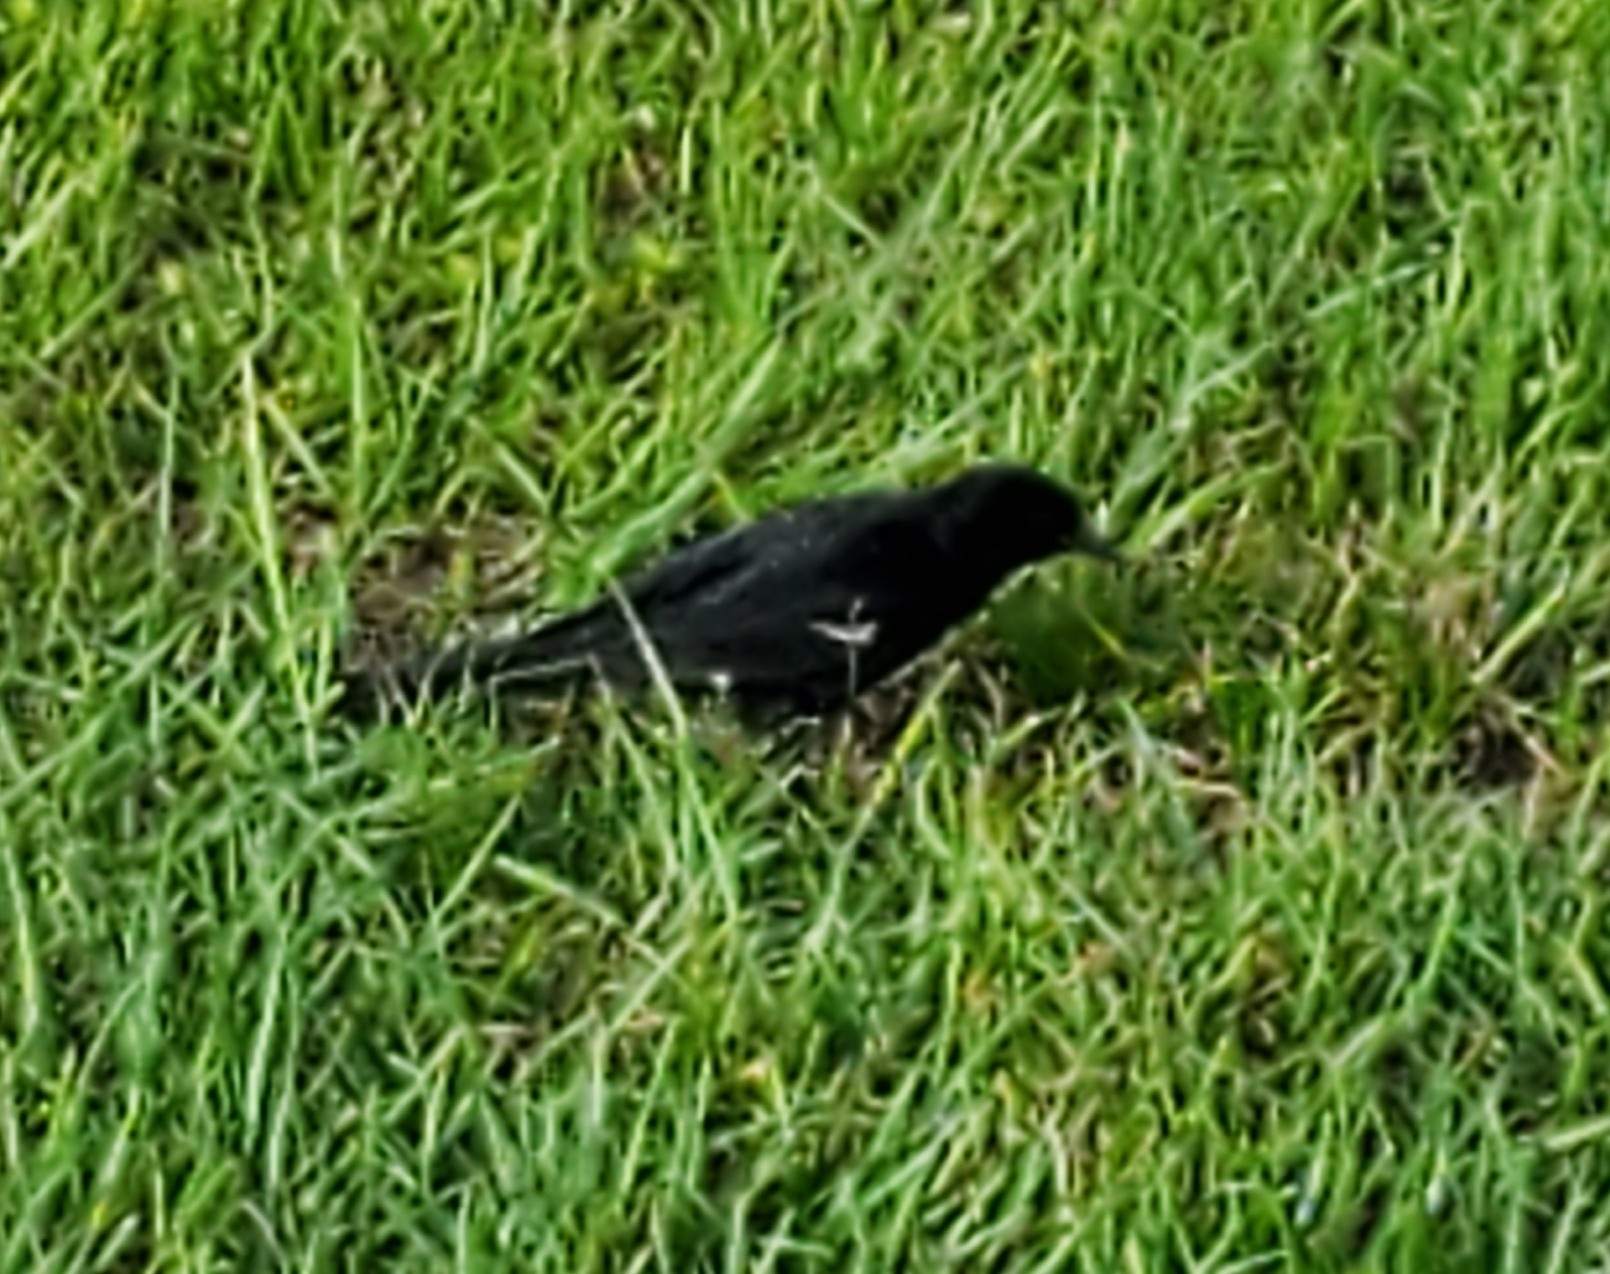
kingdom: Animalia
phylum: Chordata
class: Aves
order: Passeriformes
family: Icteridae
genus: Agelaius
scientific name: Agelaius phoeniceus
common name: Red-winged blackbird
